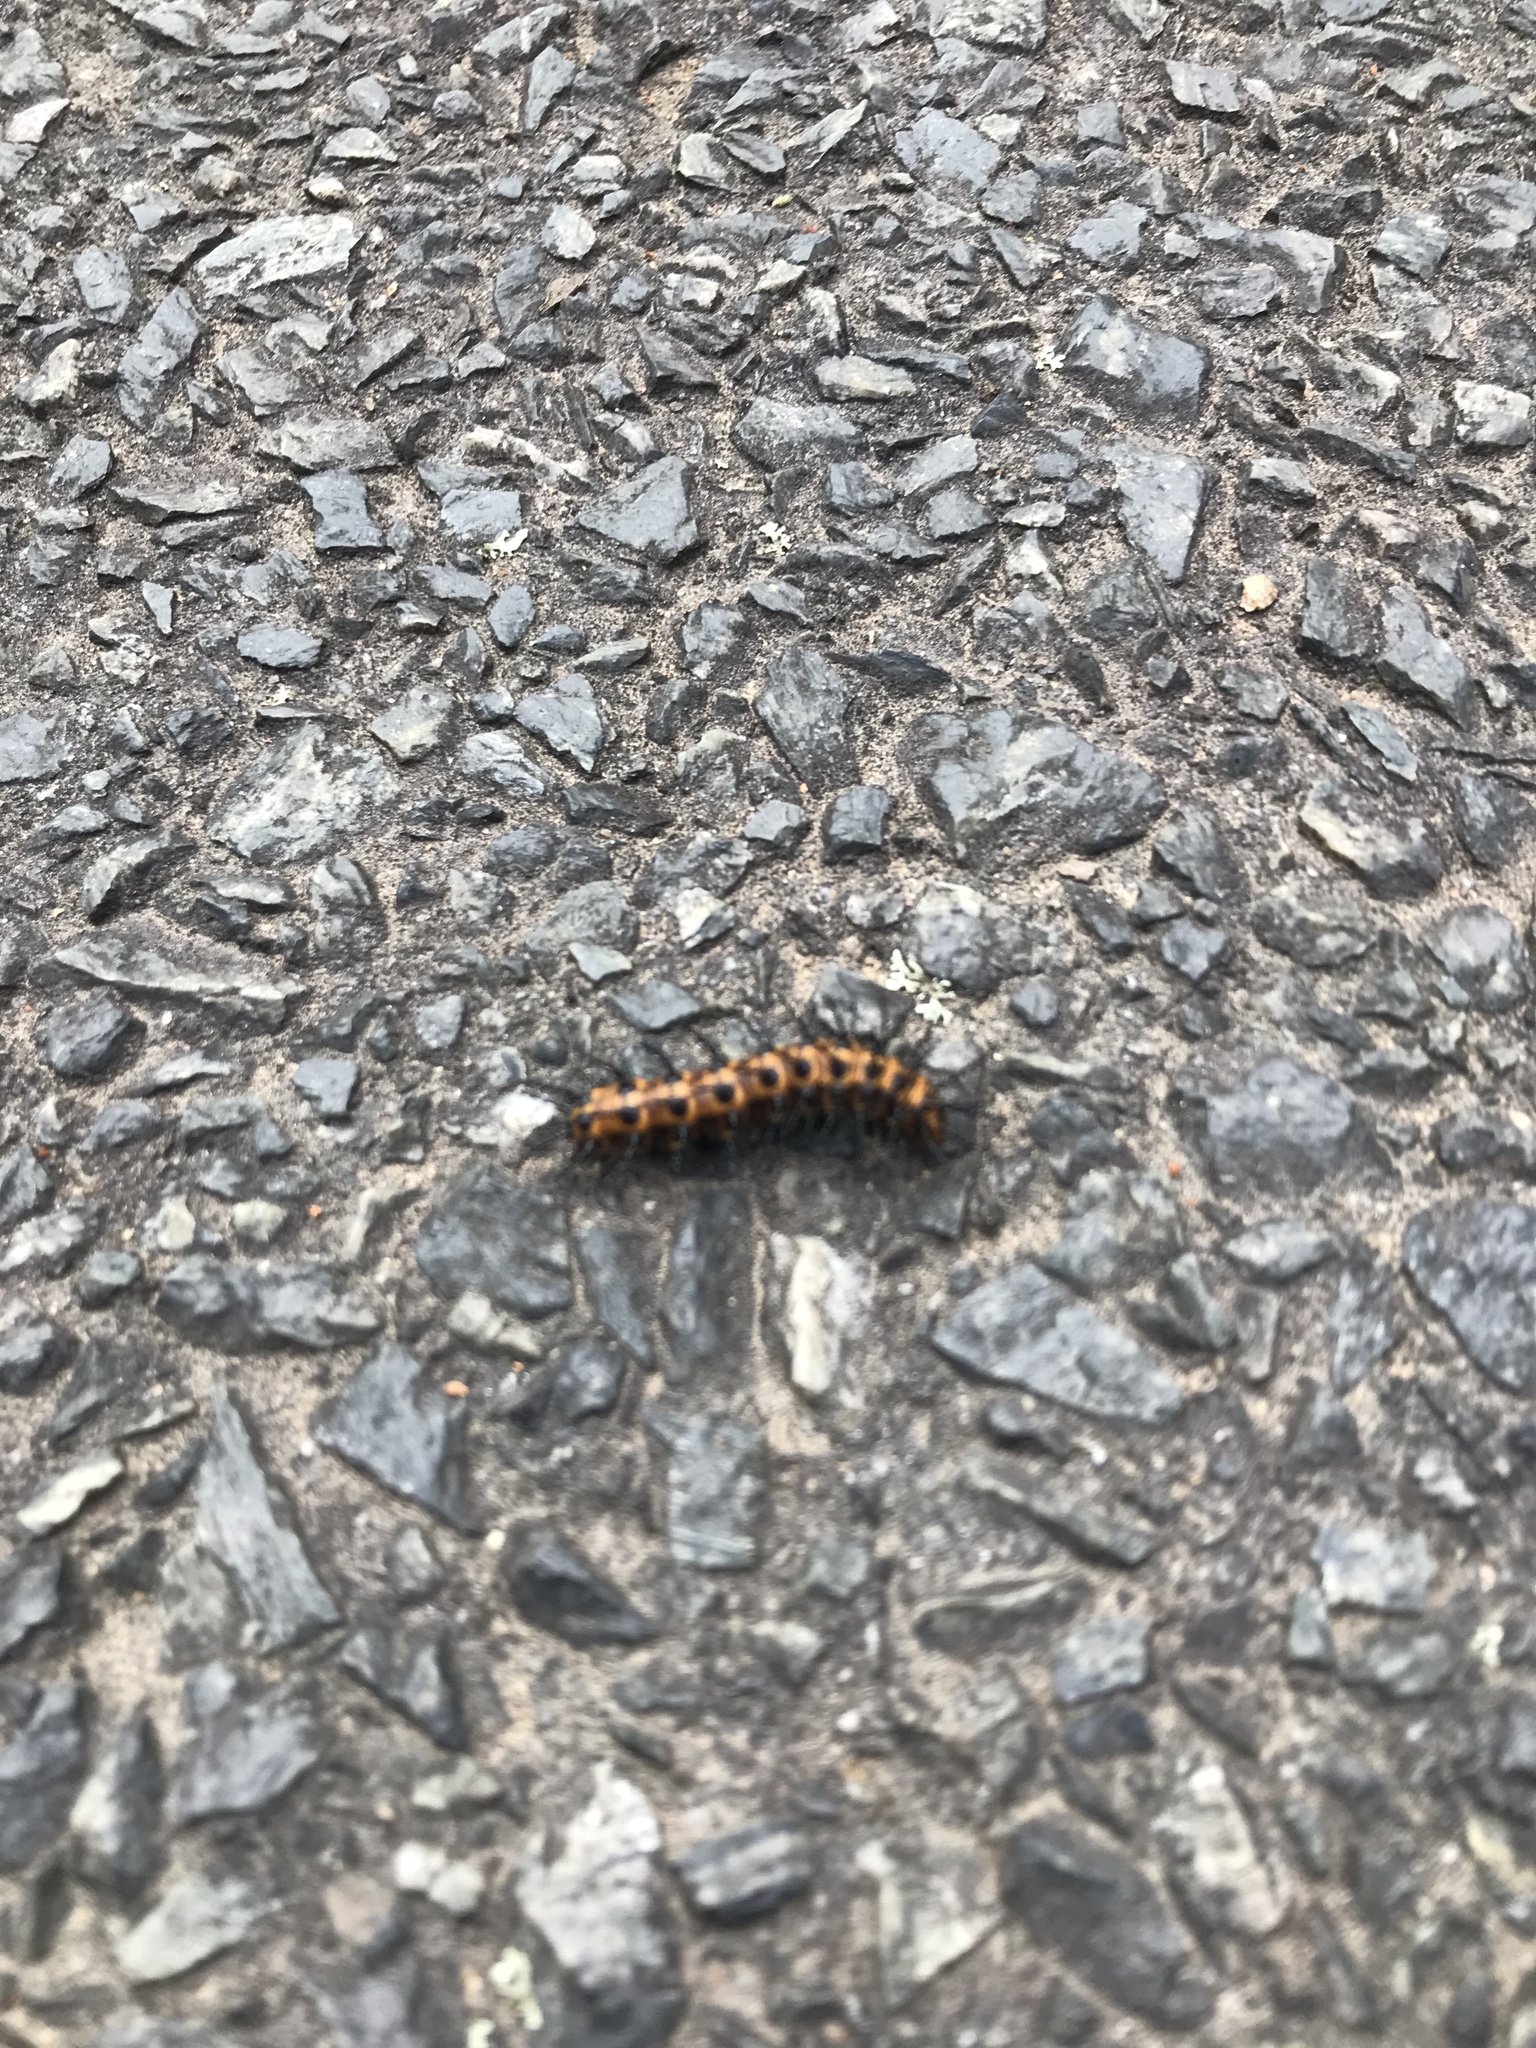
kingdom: Animalia
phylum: Arthropoda
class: Insecta
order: Lepidoptera
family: Nymphalidae
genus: Acraea
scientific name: Acraea andromacha
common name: Glasswing
